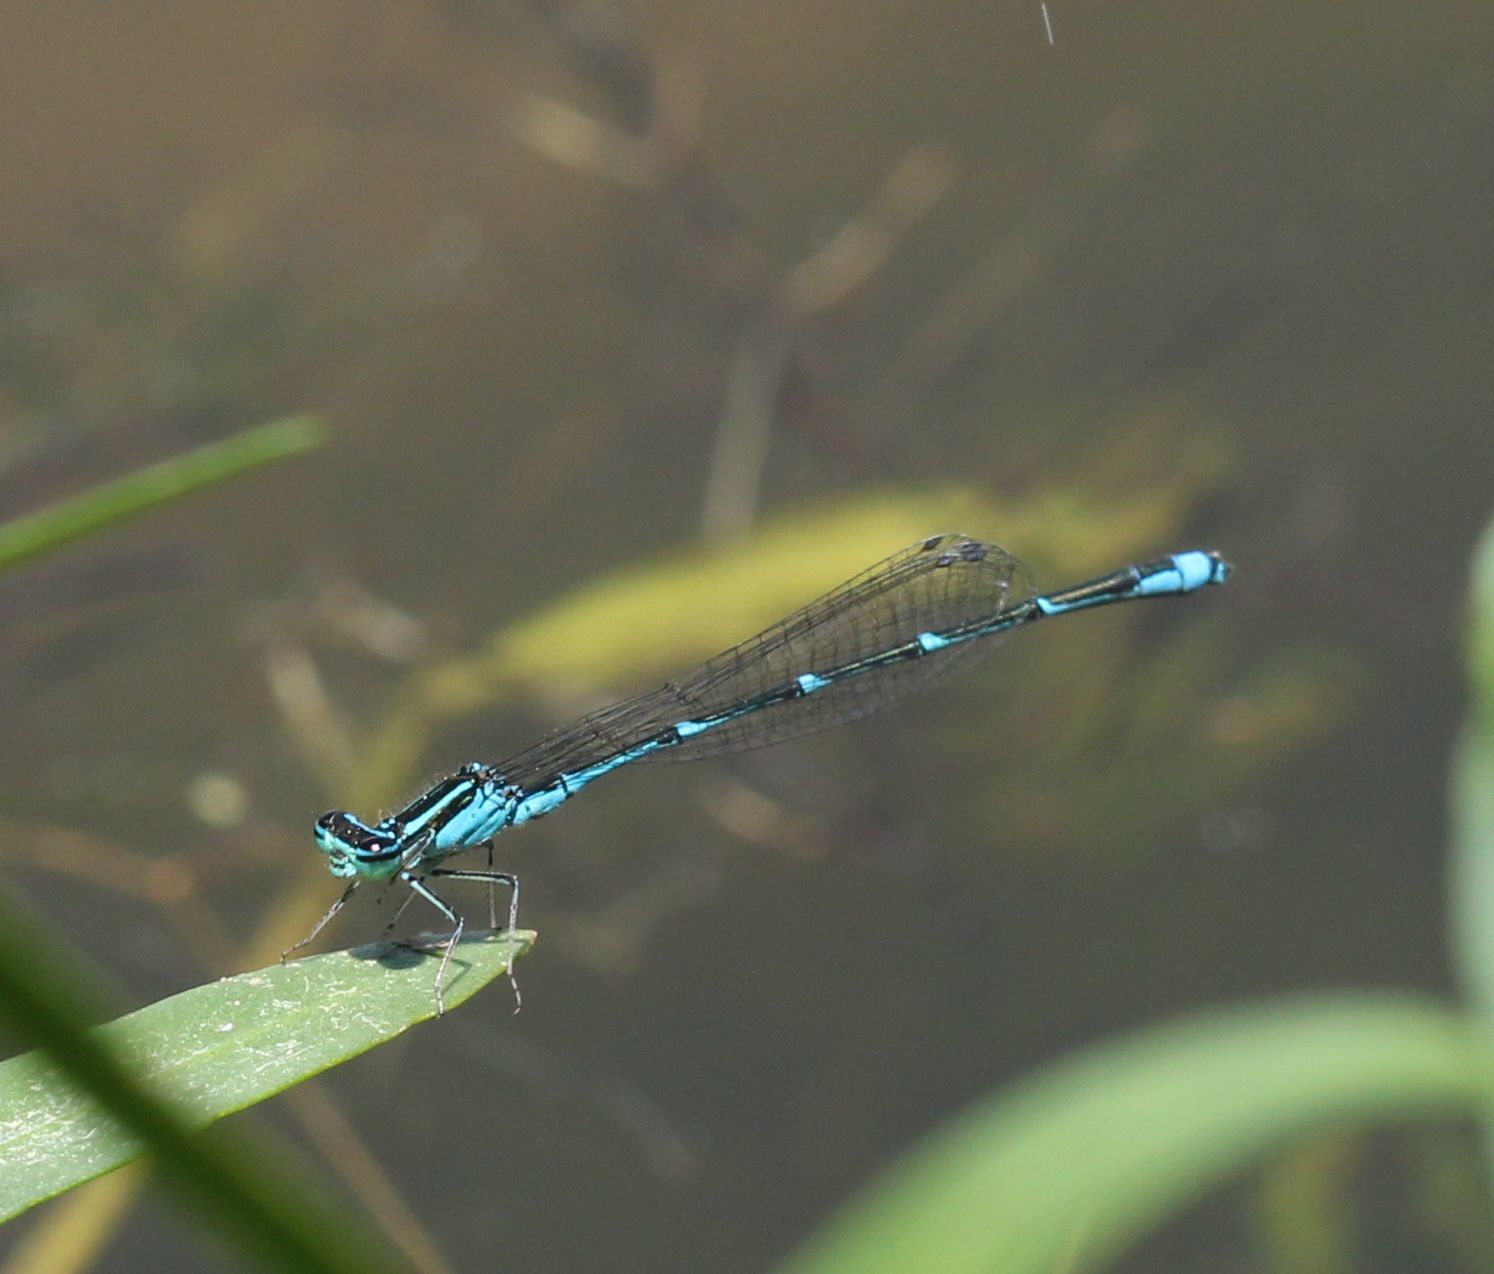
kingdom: Animalia
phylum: Arthropoda
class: Insecta
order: Odonata
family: Coenagrionidae
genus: Enallagma
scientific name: Enallagma exsulans
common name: Stream bluet
